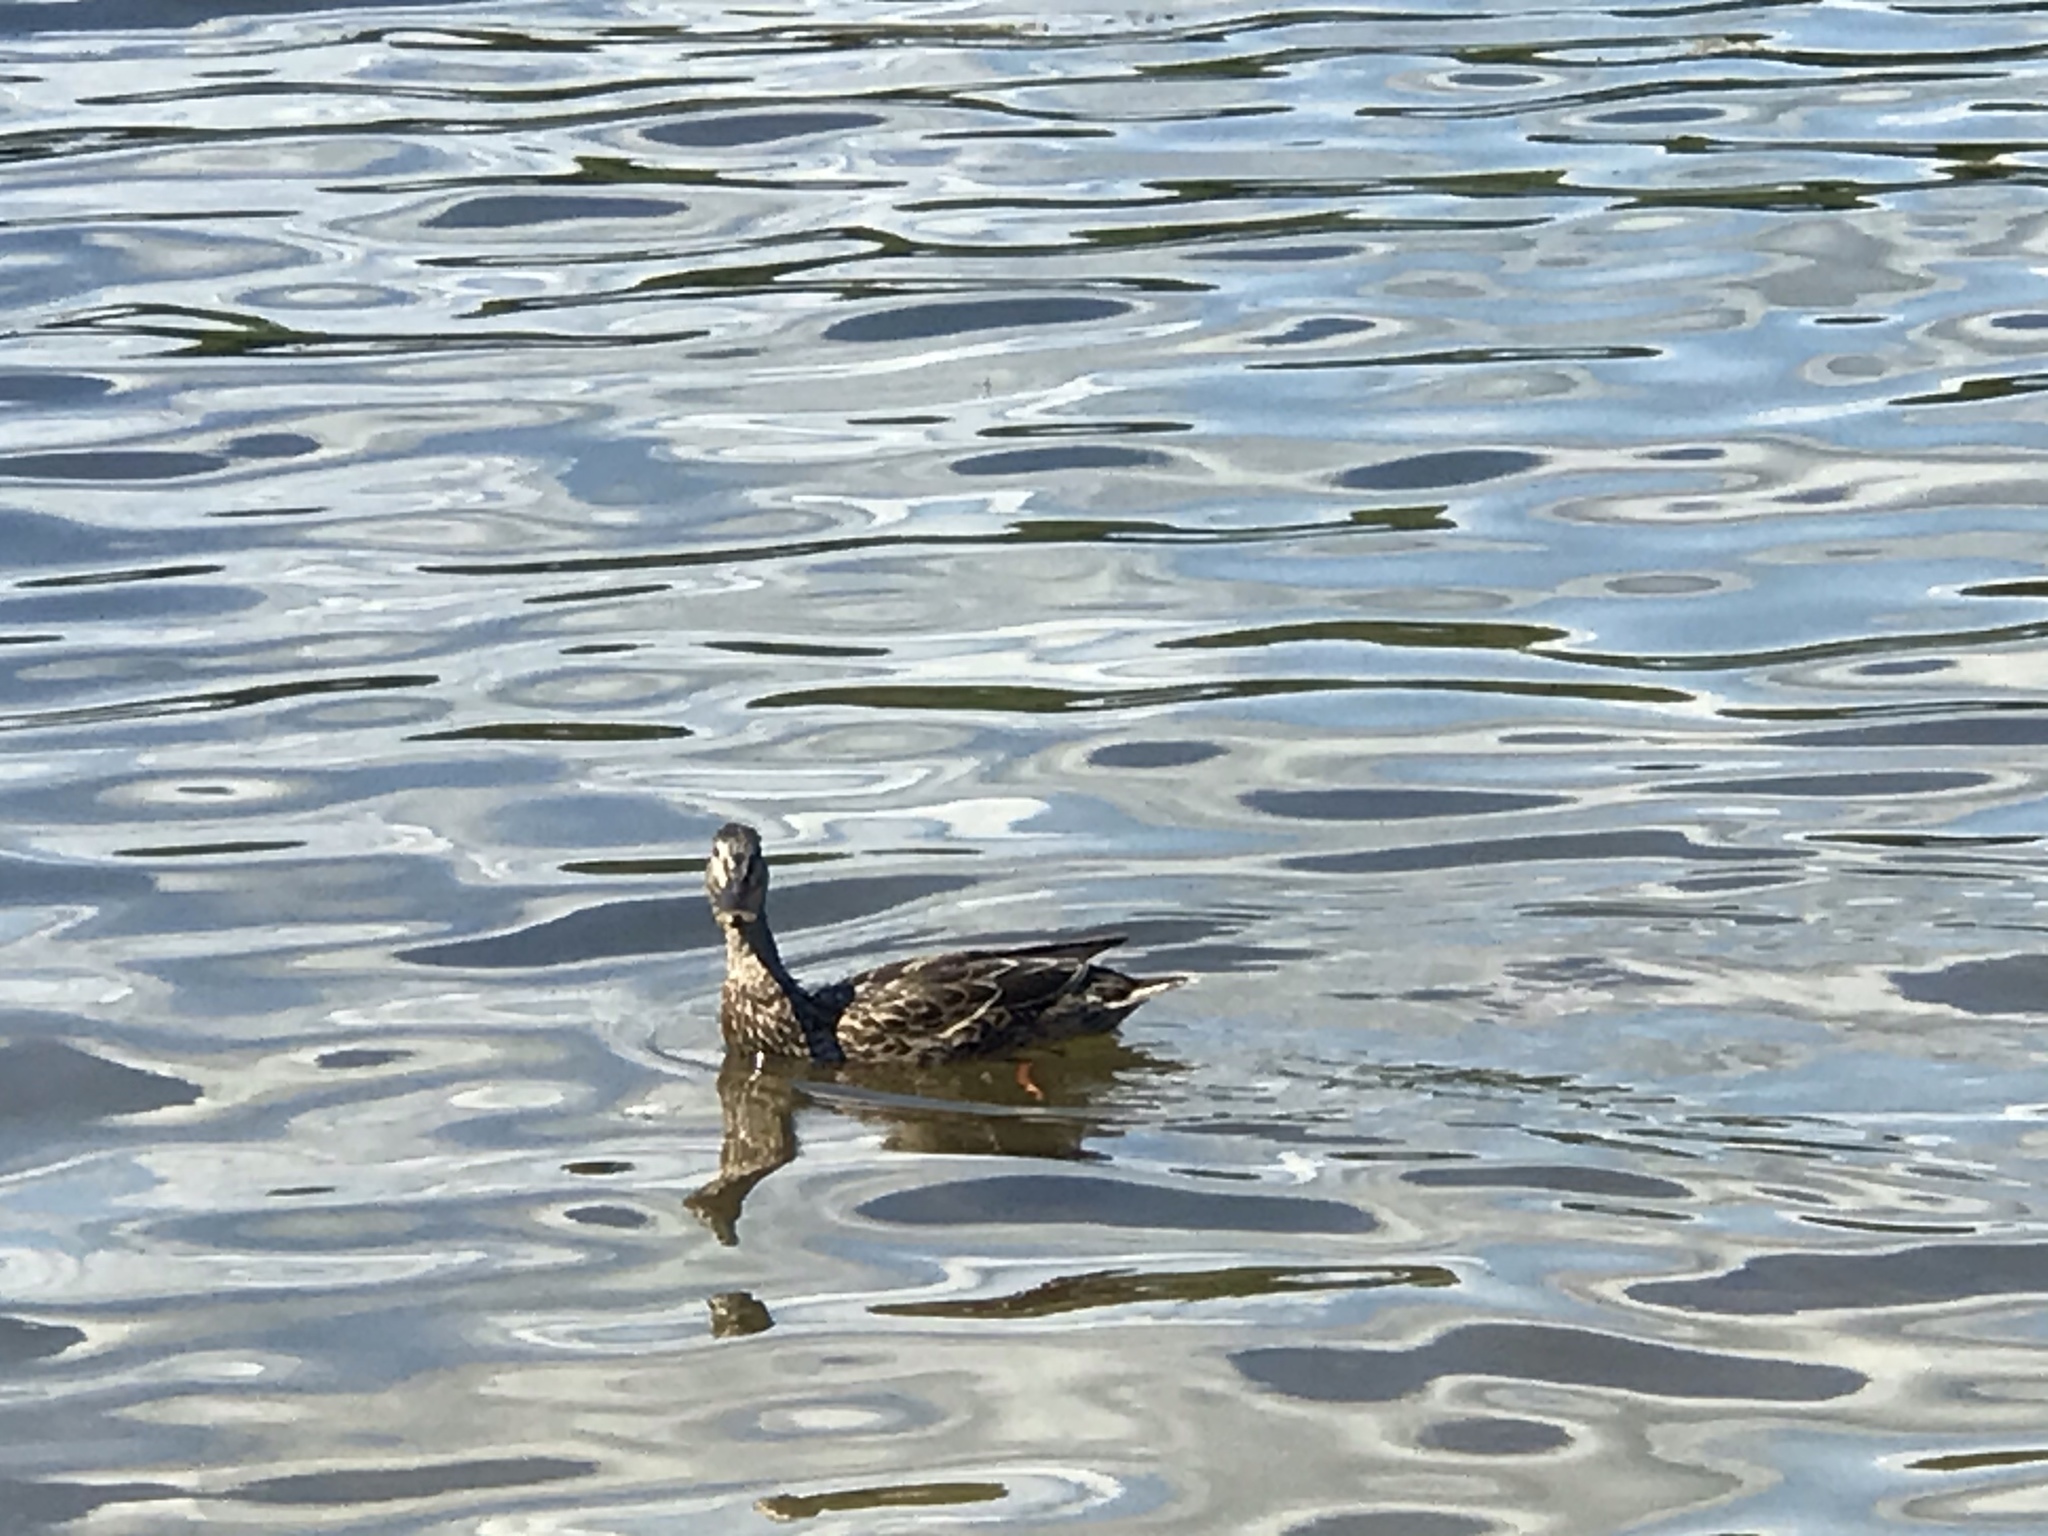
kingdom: Animalia
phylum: Chordata
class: Aves
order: Anseriformes
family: Anatidae
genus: Anas
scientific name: Anas platyrhynchos
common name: Mallard
